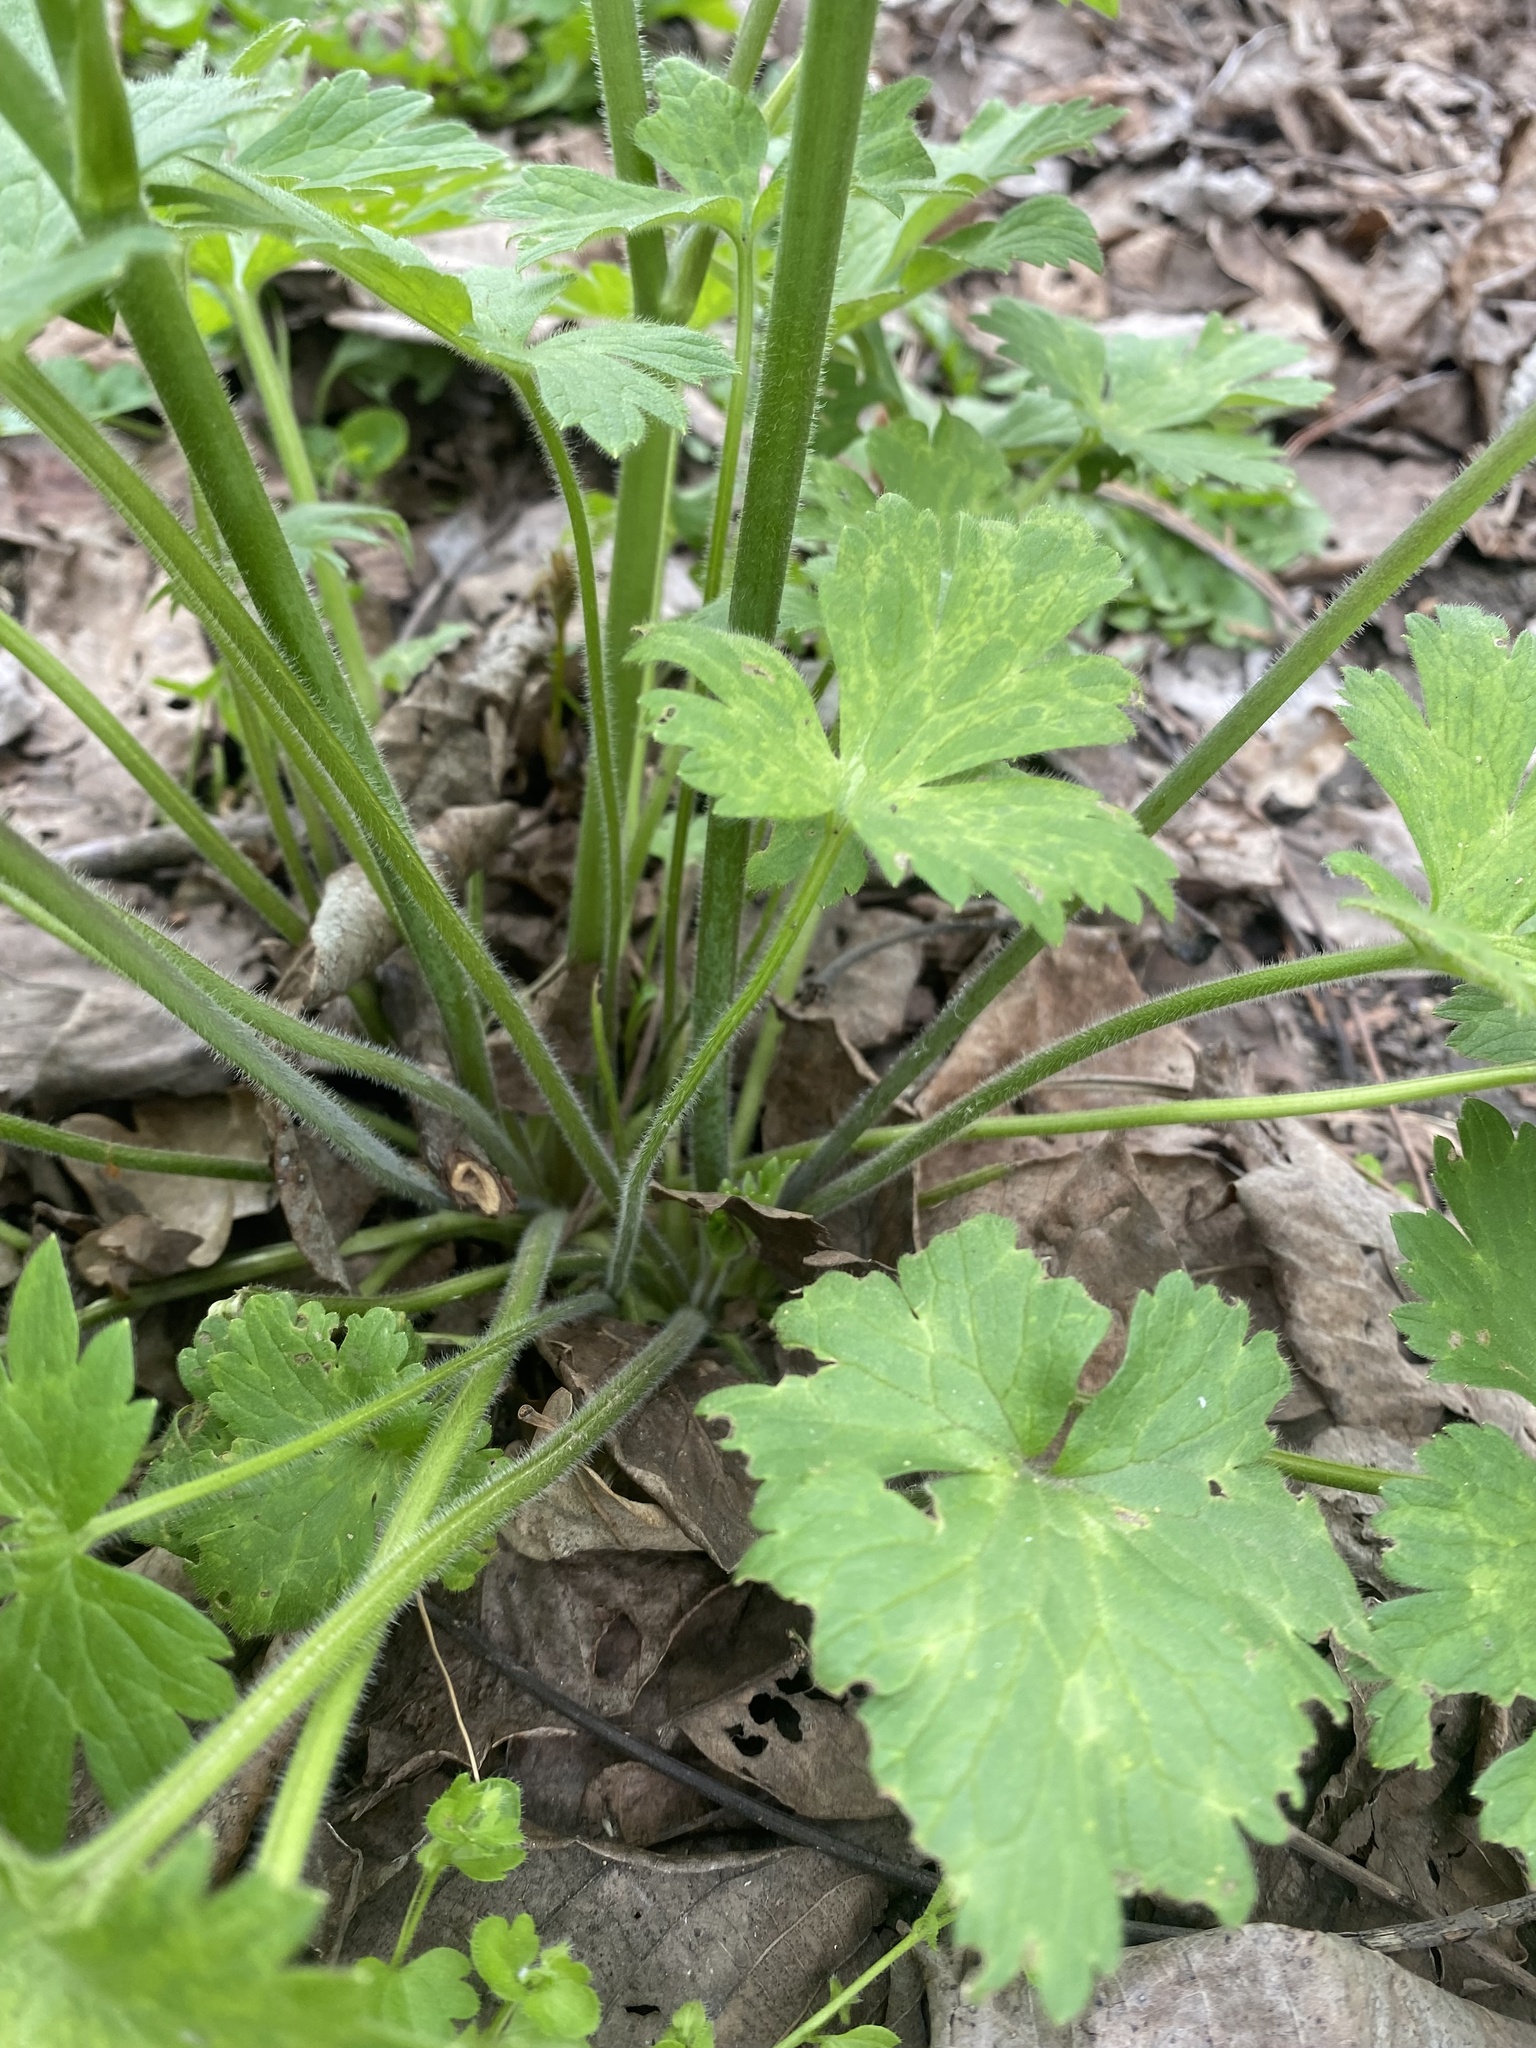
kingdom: Plantae
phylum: Tracheophyta
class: Magnoliopsida
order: Ranunculales
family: Ranunculaceae
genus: Ranunculus
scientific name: Ranunculus constantinopolitanus
